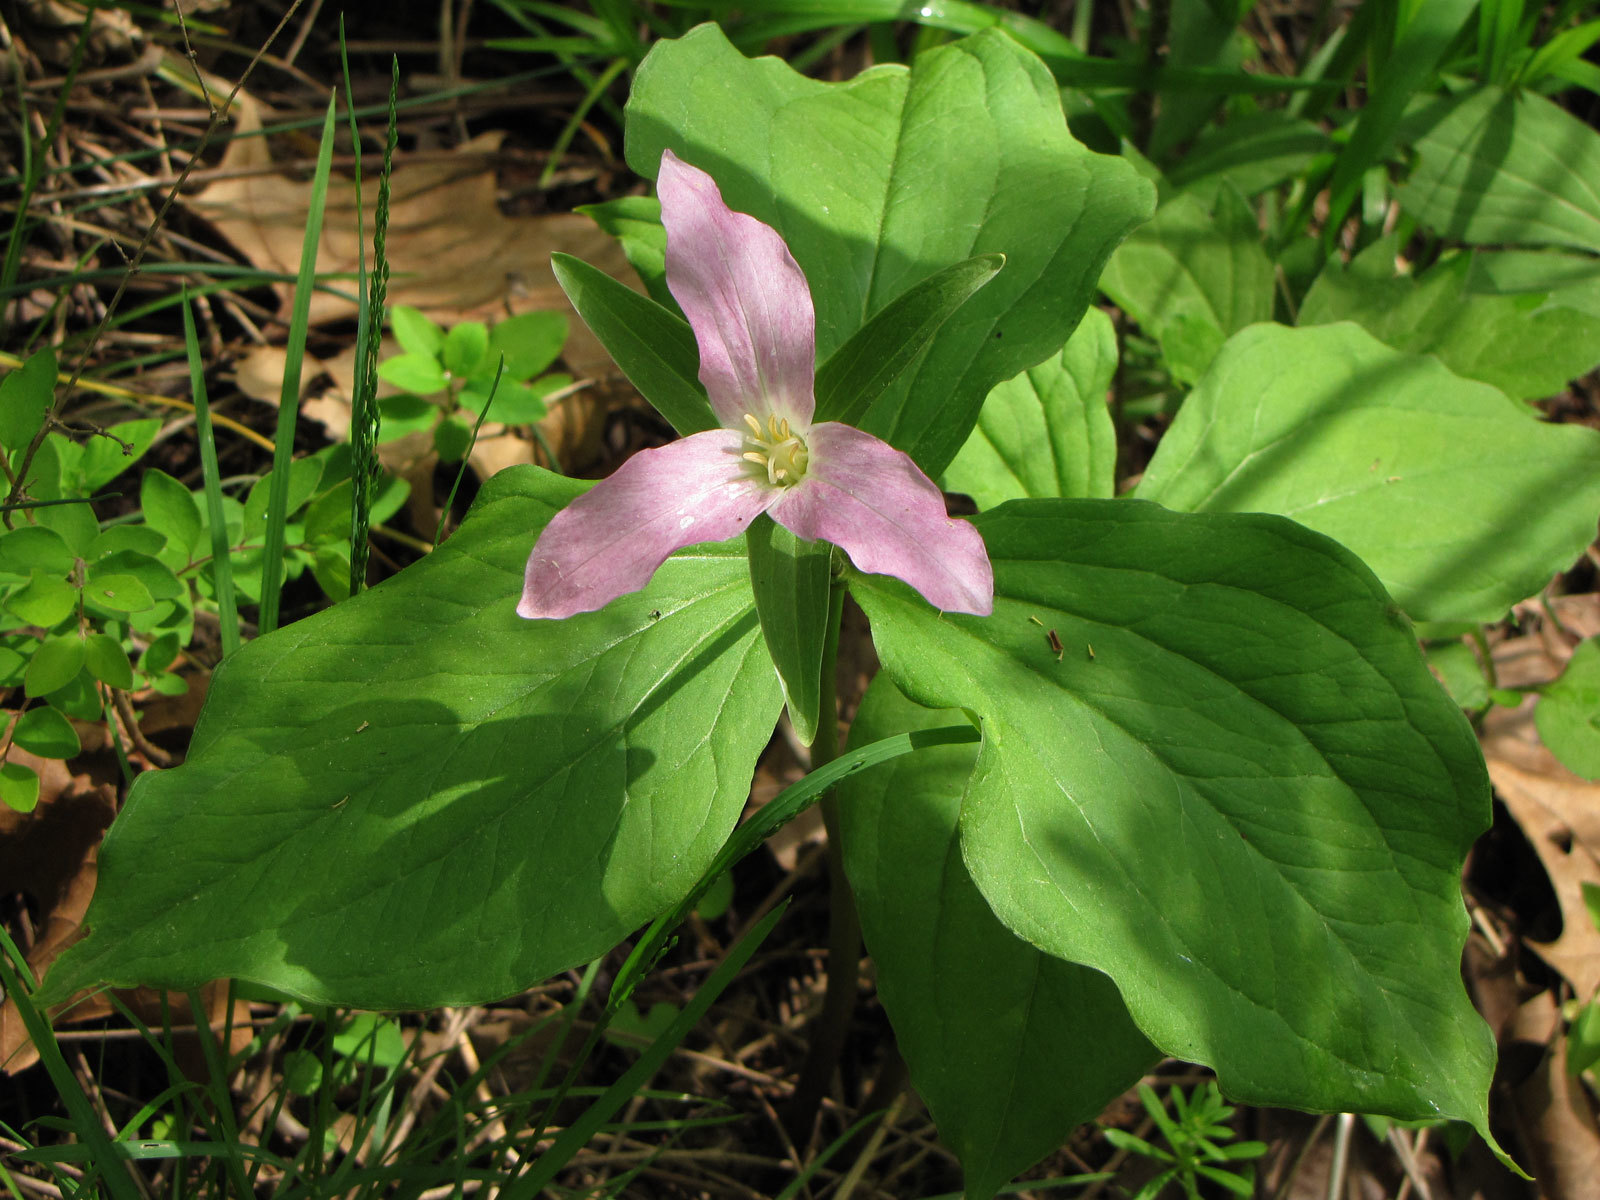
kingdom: Plantae
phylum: Tracheophyta
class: Liliopsida
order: Liliales
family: Melanthiaceae
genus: Trillium
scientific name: Trillium grandiflorum
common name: Great white trillium
